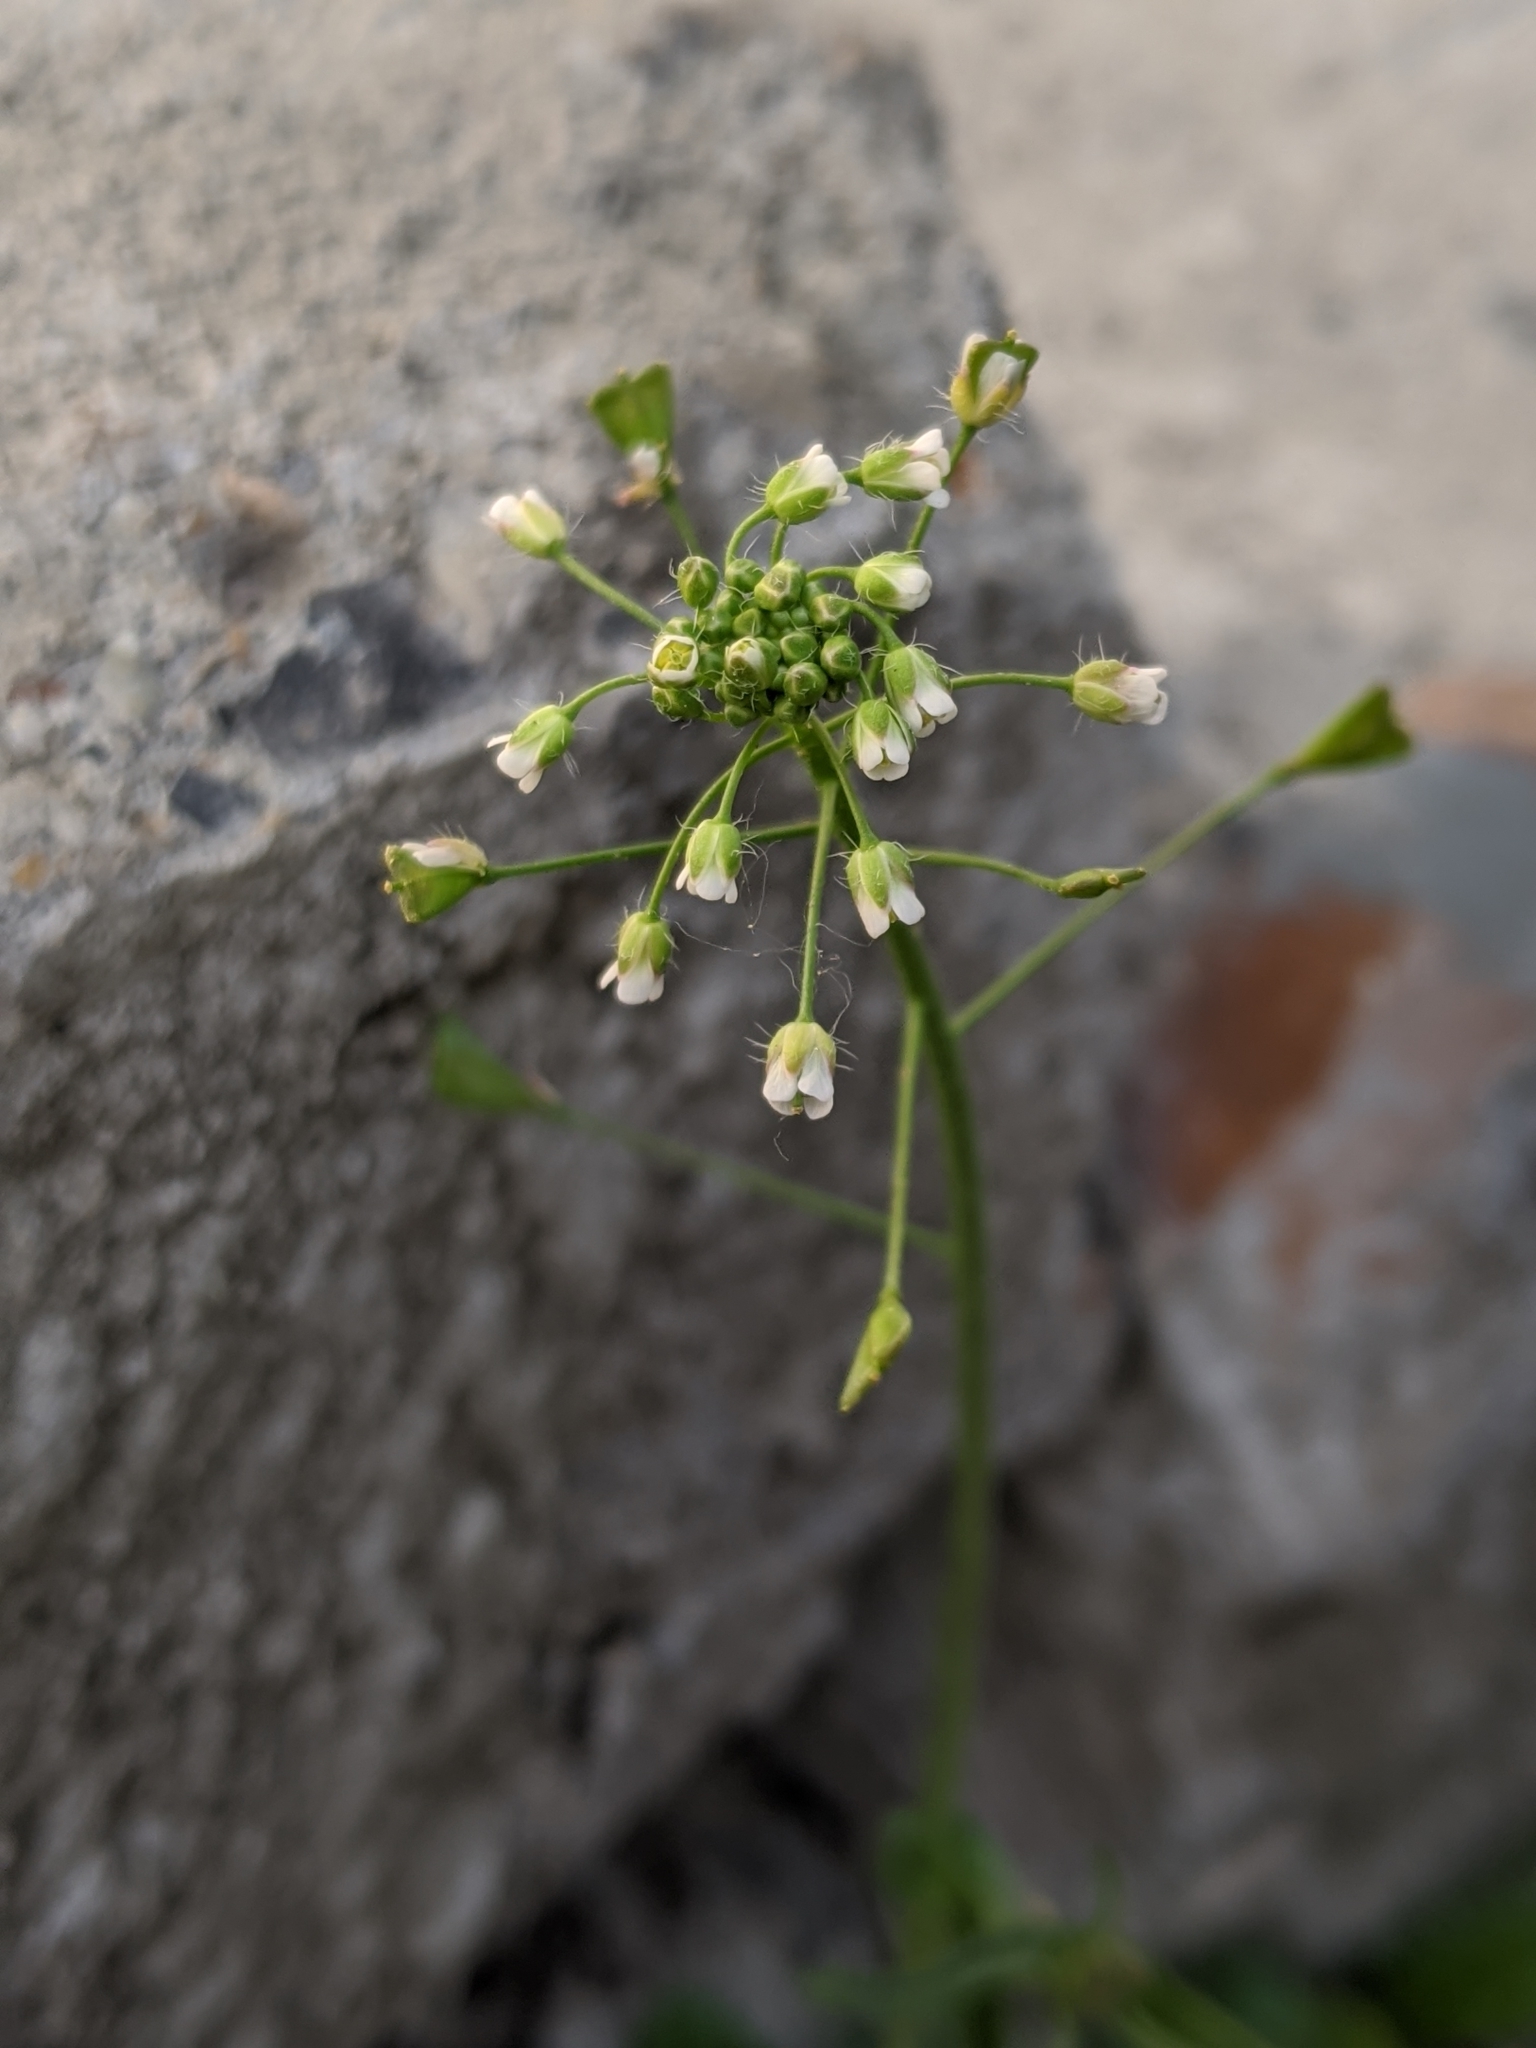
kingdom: Plantae
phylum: Tracheophyta
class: Magnoliopsida
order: Brassicales
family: Brassicaceae
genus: Capsella
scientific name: Capsella bursa-pastoris
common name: Shepherd's purse
